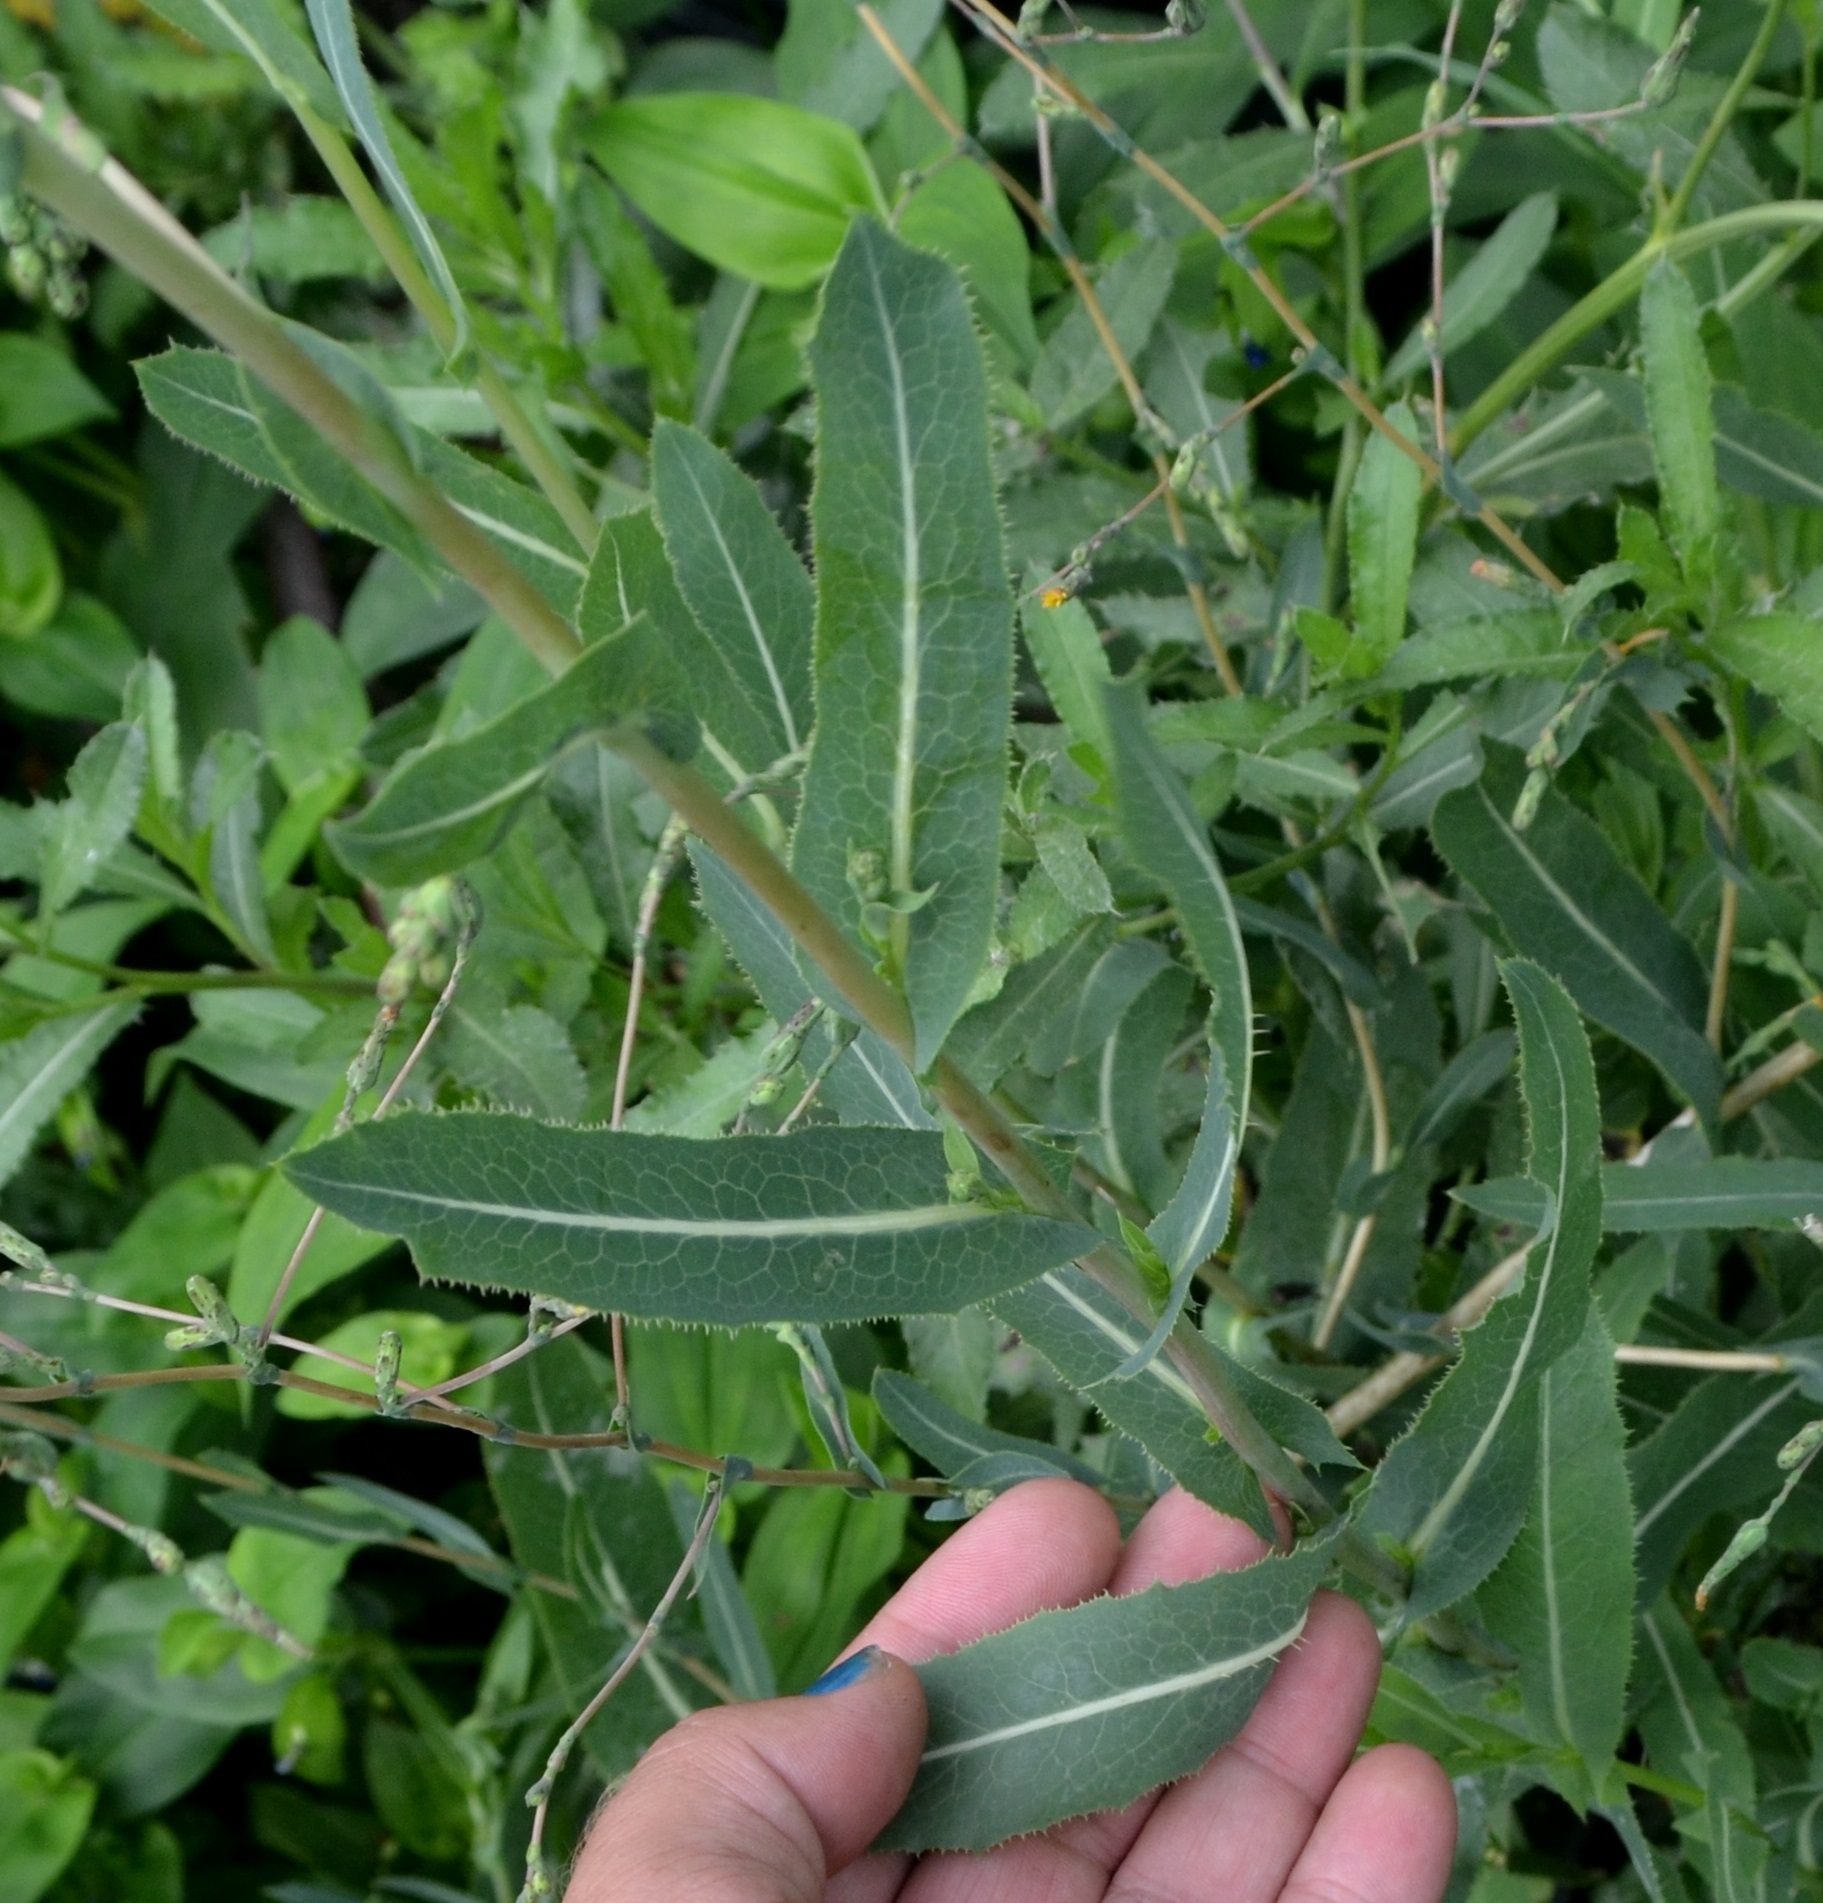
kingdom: Plantae
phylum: Tracheophyta
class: Magnoliopsida
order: Asterales
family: Asteraceae
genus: Lactuca
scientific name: Lactuca serriola
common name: Prickly lettuce
